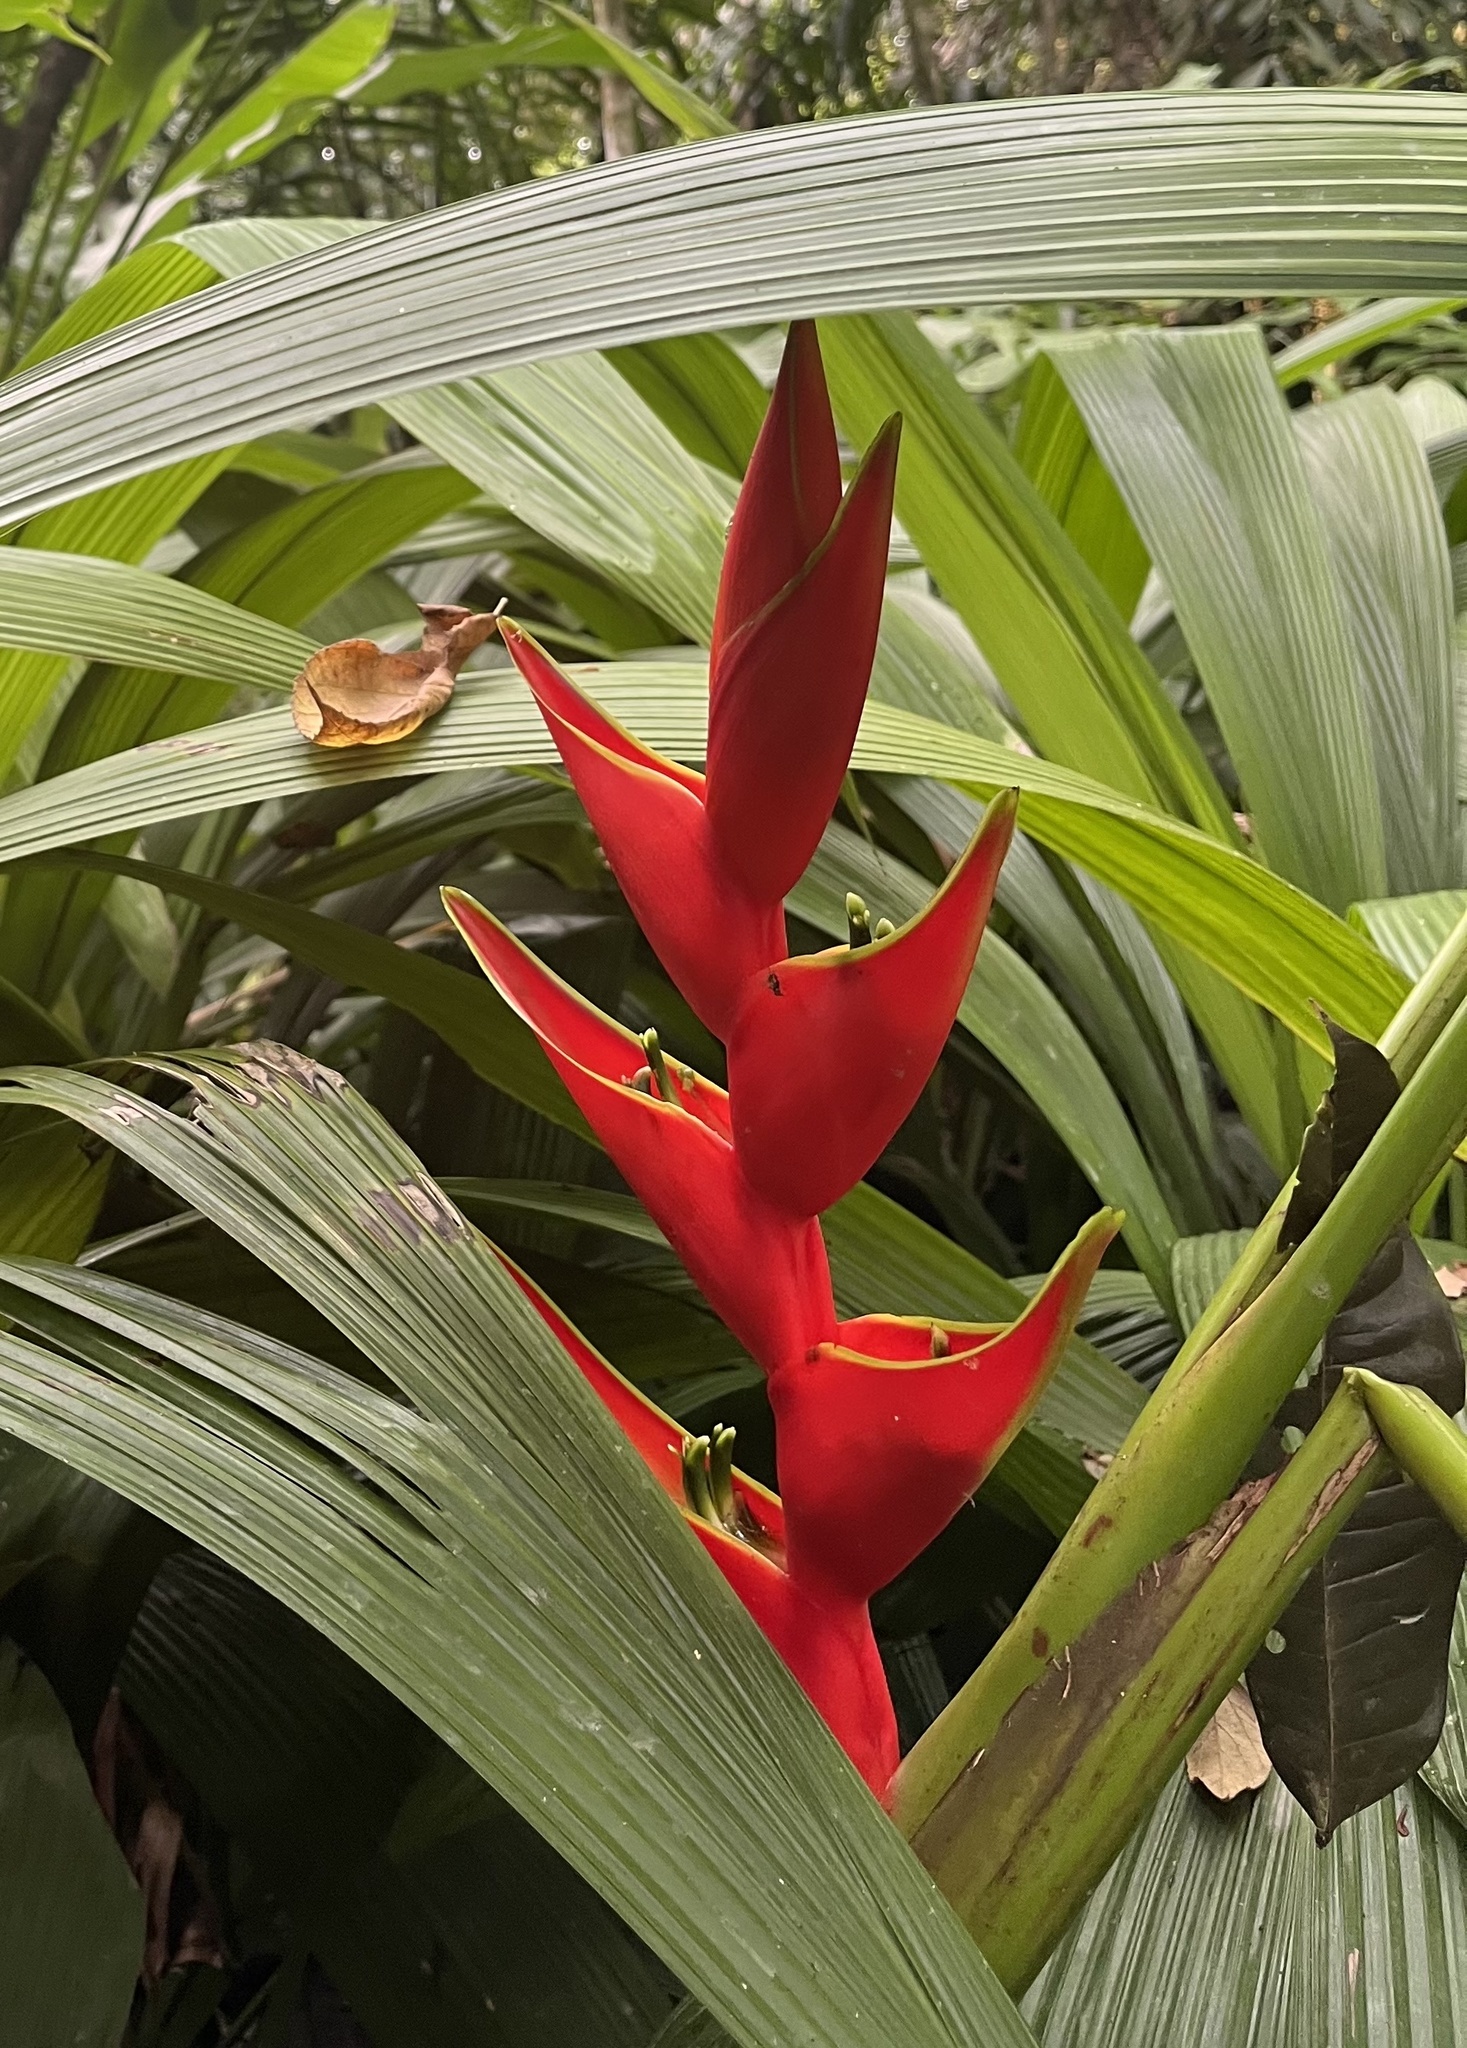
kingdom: Plantae
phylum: Tracheophyta
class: Liliopsida
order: Zingiberales
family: Heliconiaceae
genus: Heliconia
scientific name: Heliconia stricta
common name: Small lobster claw
